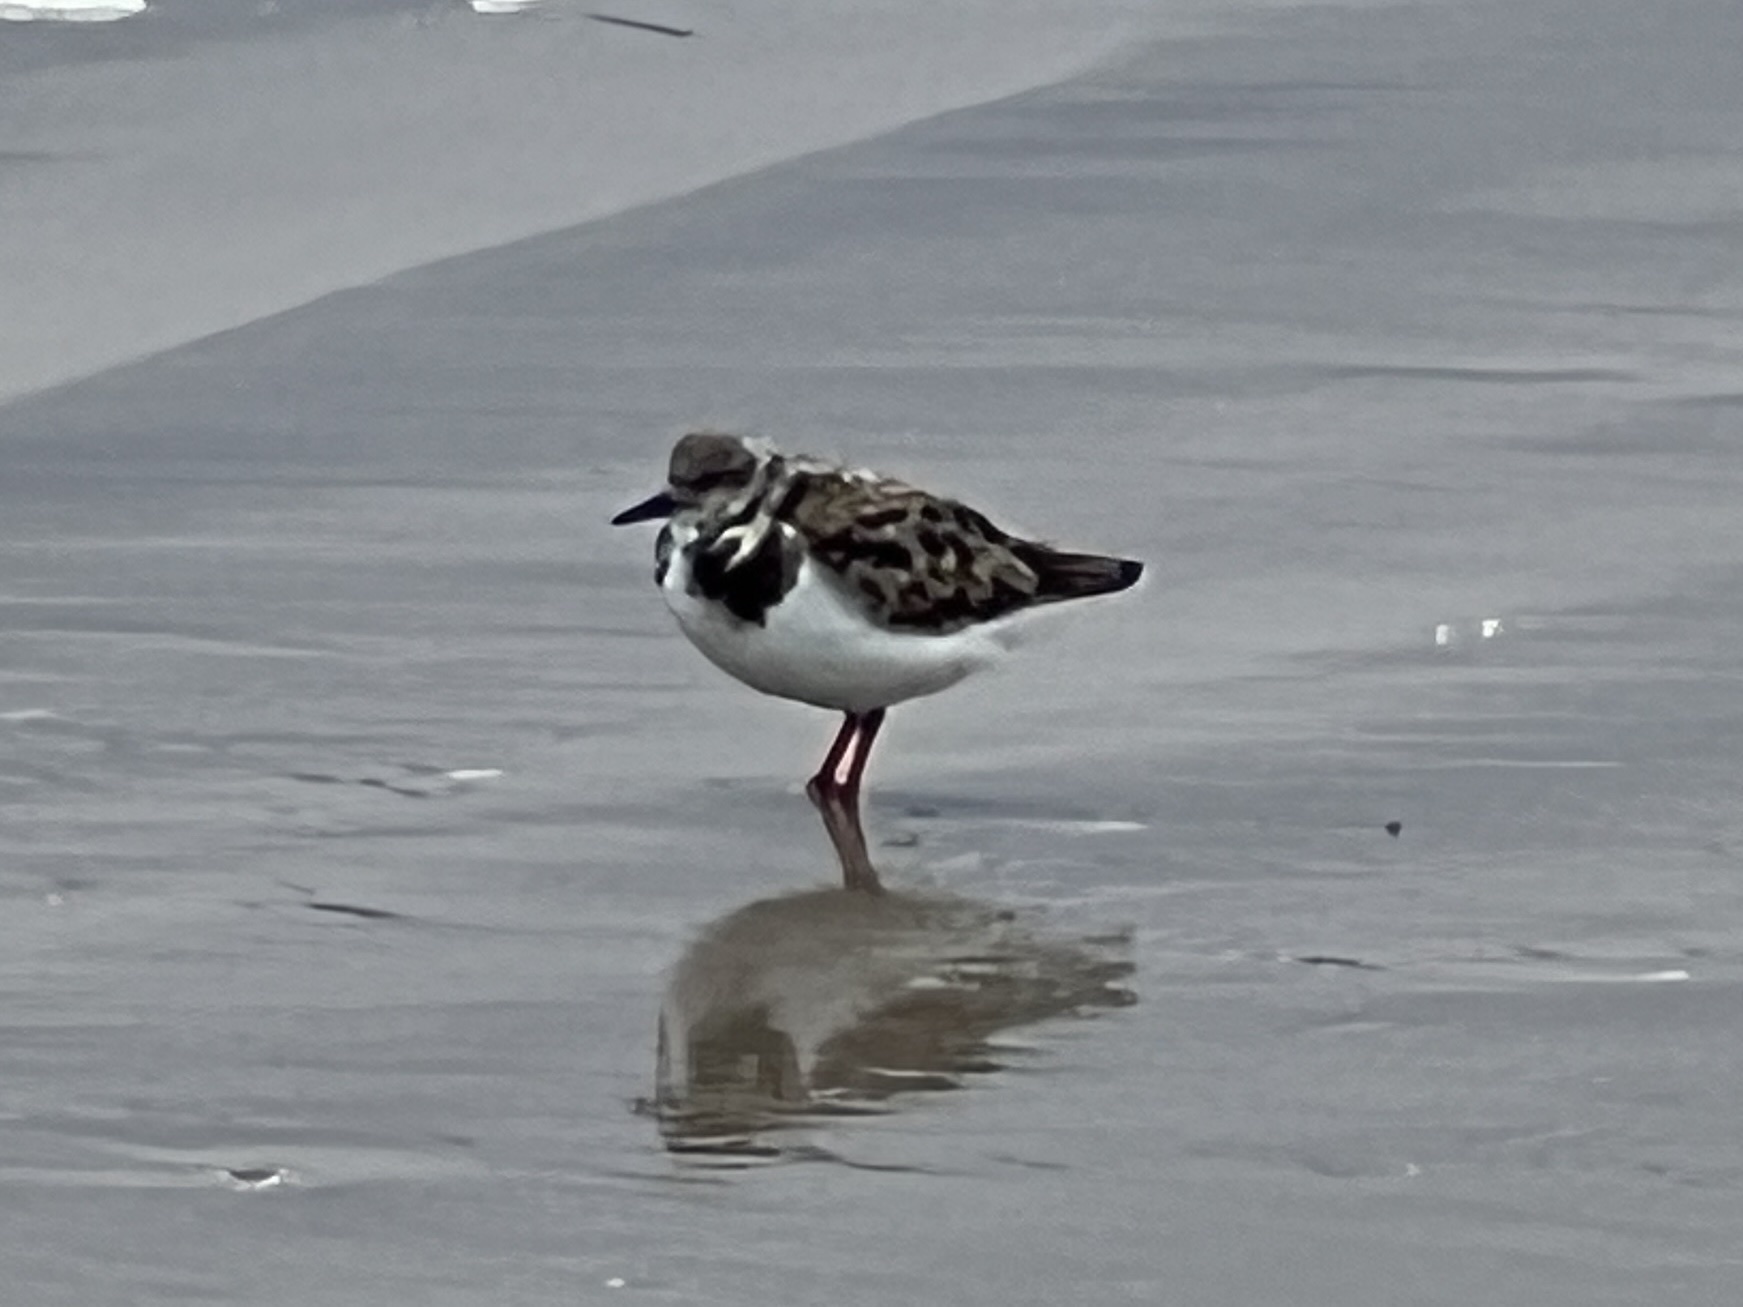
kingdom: Animalia
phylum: Chordata
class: Aves
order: Charadriiformes
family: Scolopacidae
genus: Arenaria
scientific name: Arenaria interpres
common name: Ruddy turnstone
